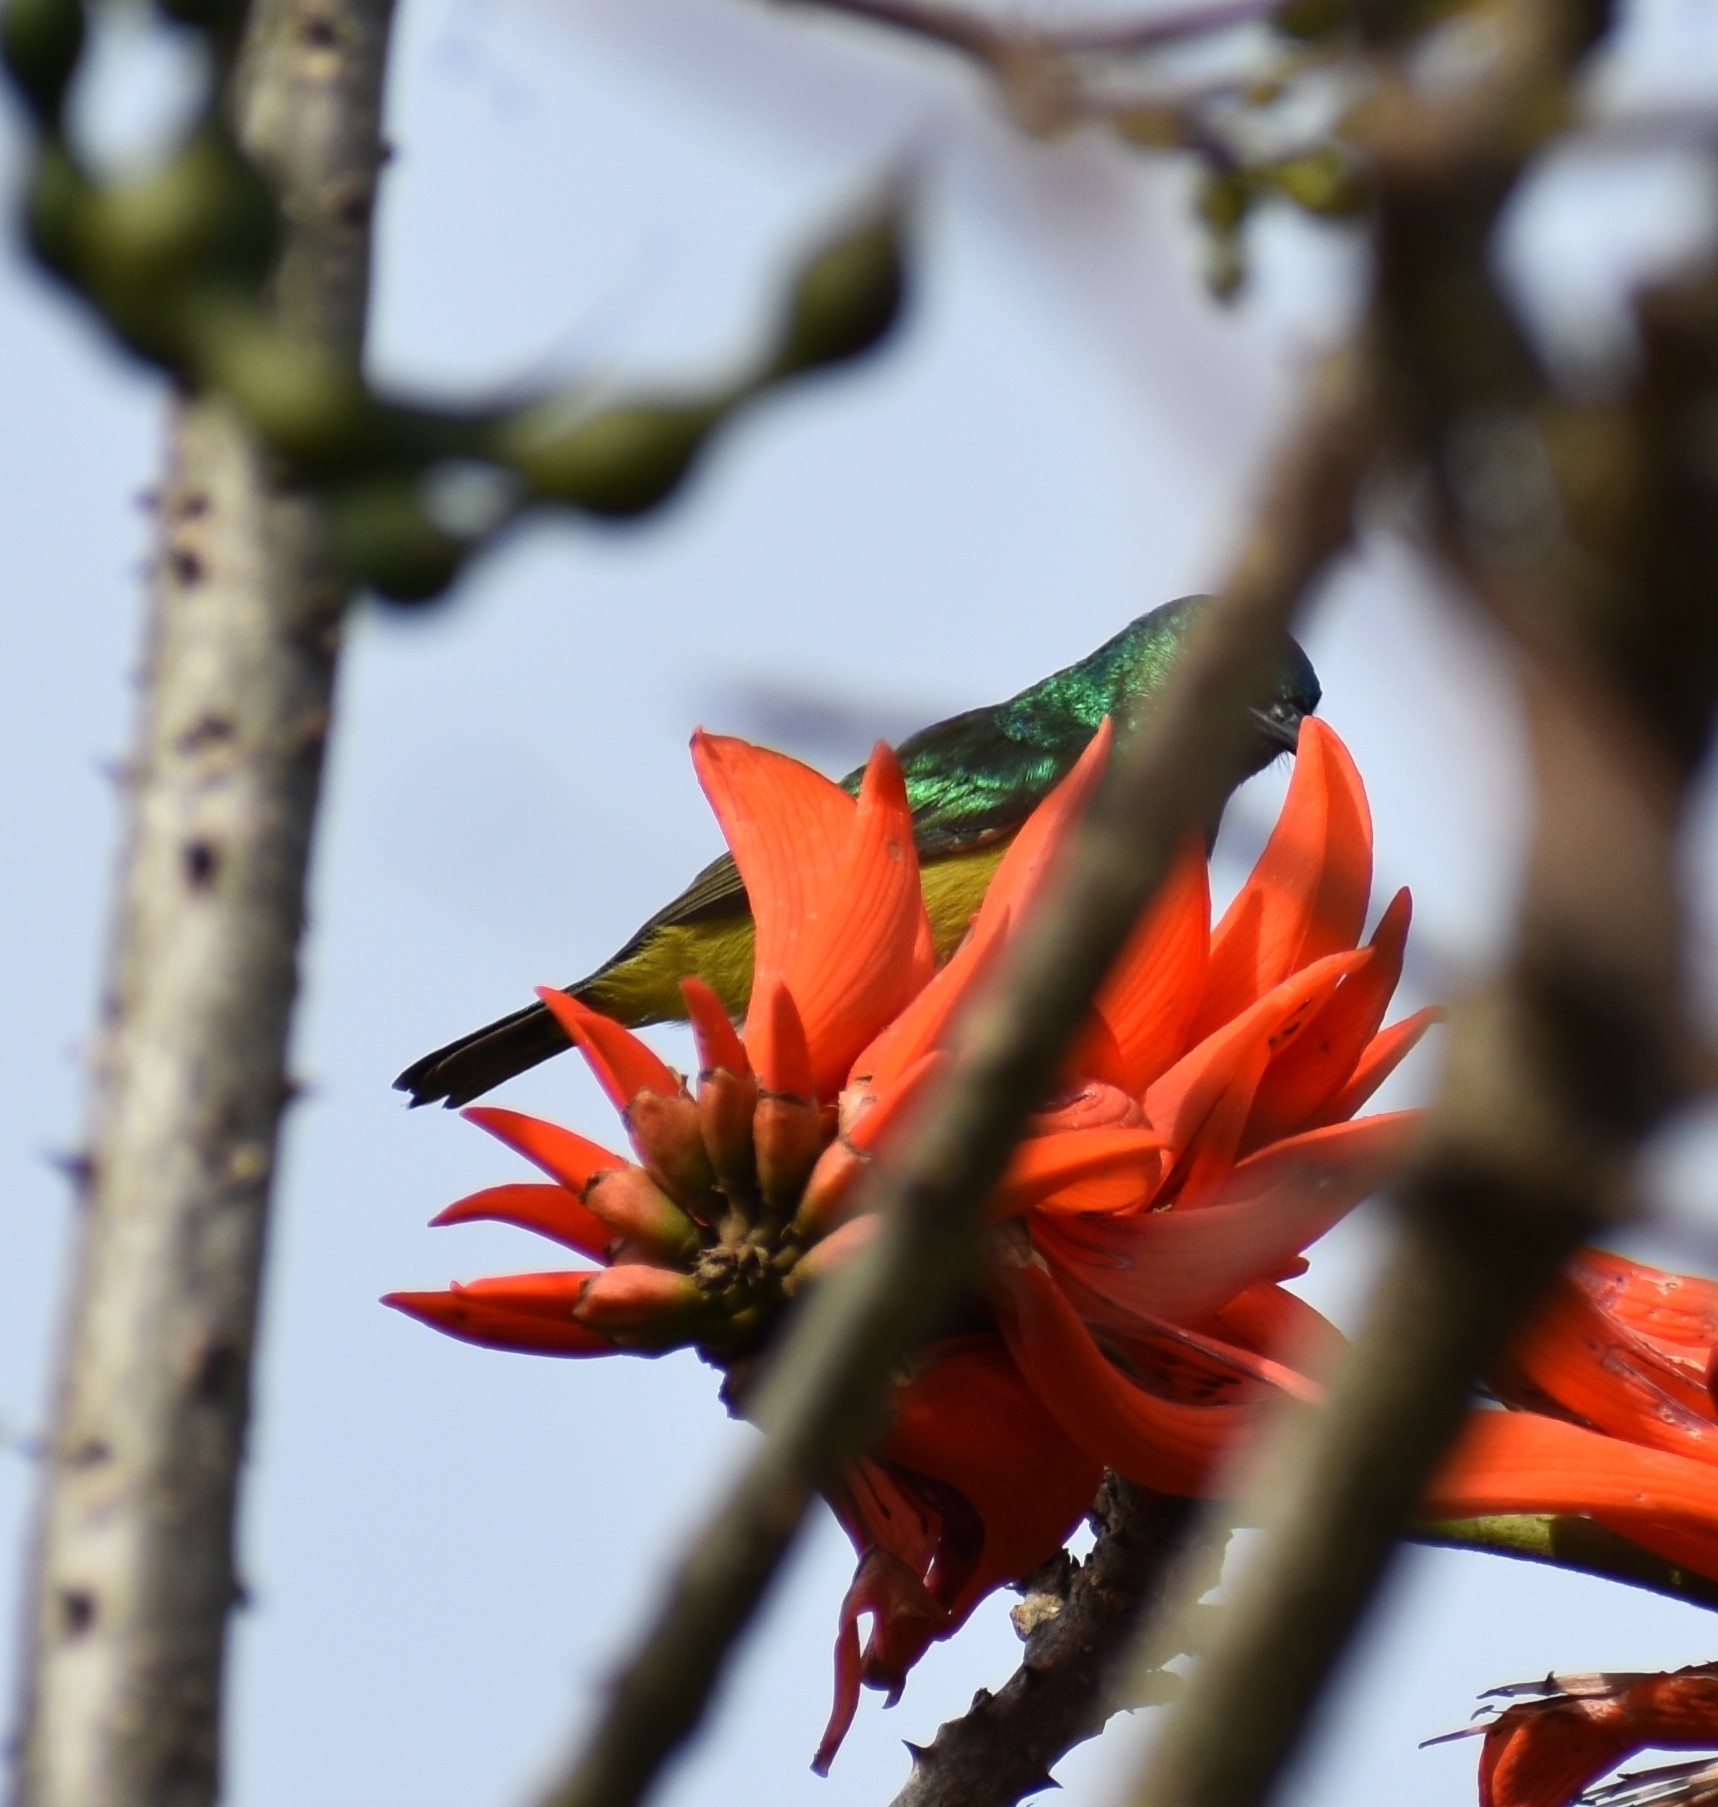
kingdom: Animalia
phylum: Chordata
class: Aves
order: Passeriformes
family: Nectariniidae
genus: Hedydipna
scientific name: Hedydipna collaris
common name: Collared sunbird
